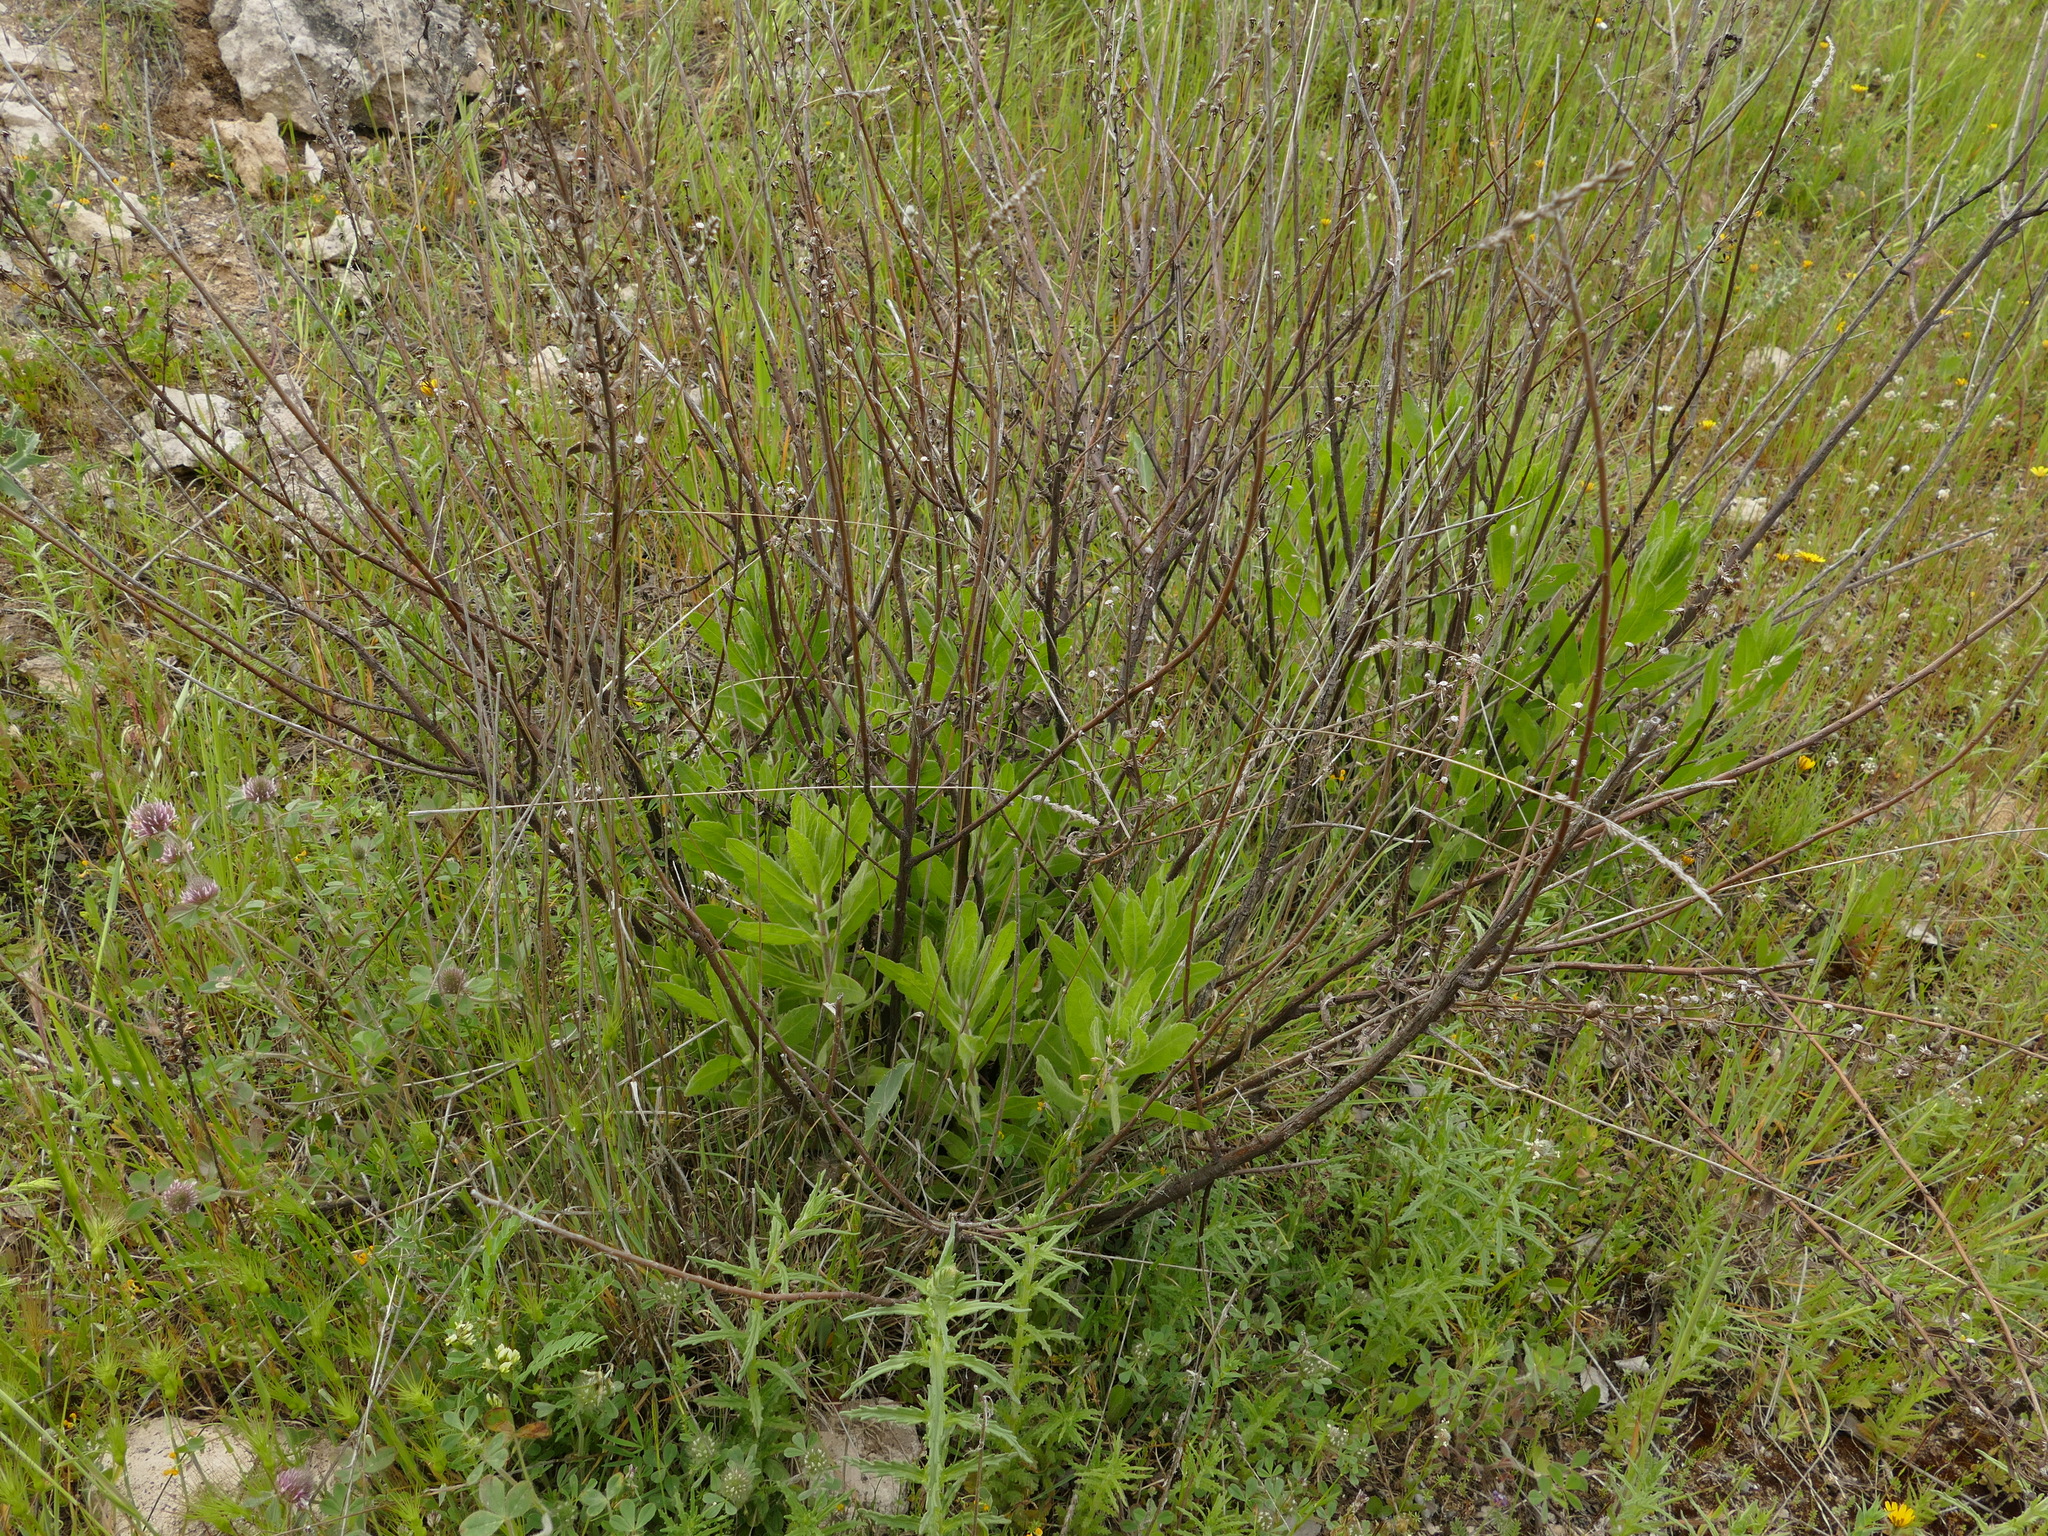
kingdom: Plantae
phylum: Tracheophyta
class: Magnoliopsida
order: Asterales
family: Asteraceae
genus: Dittrichia
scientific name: Dittrichia viscosa
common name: Woody fleabane
